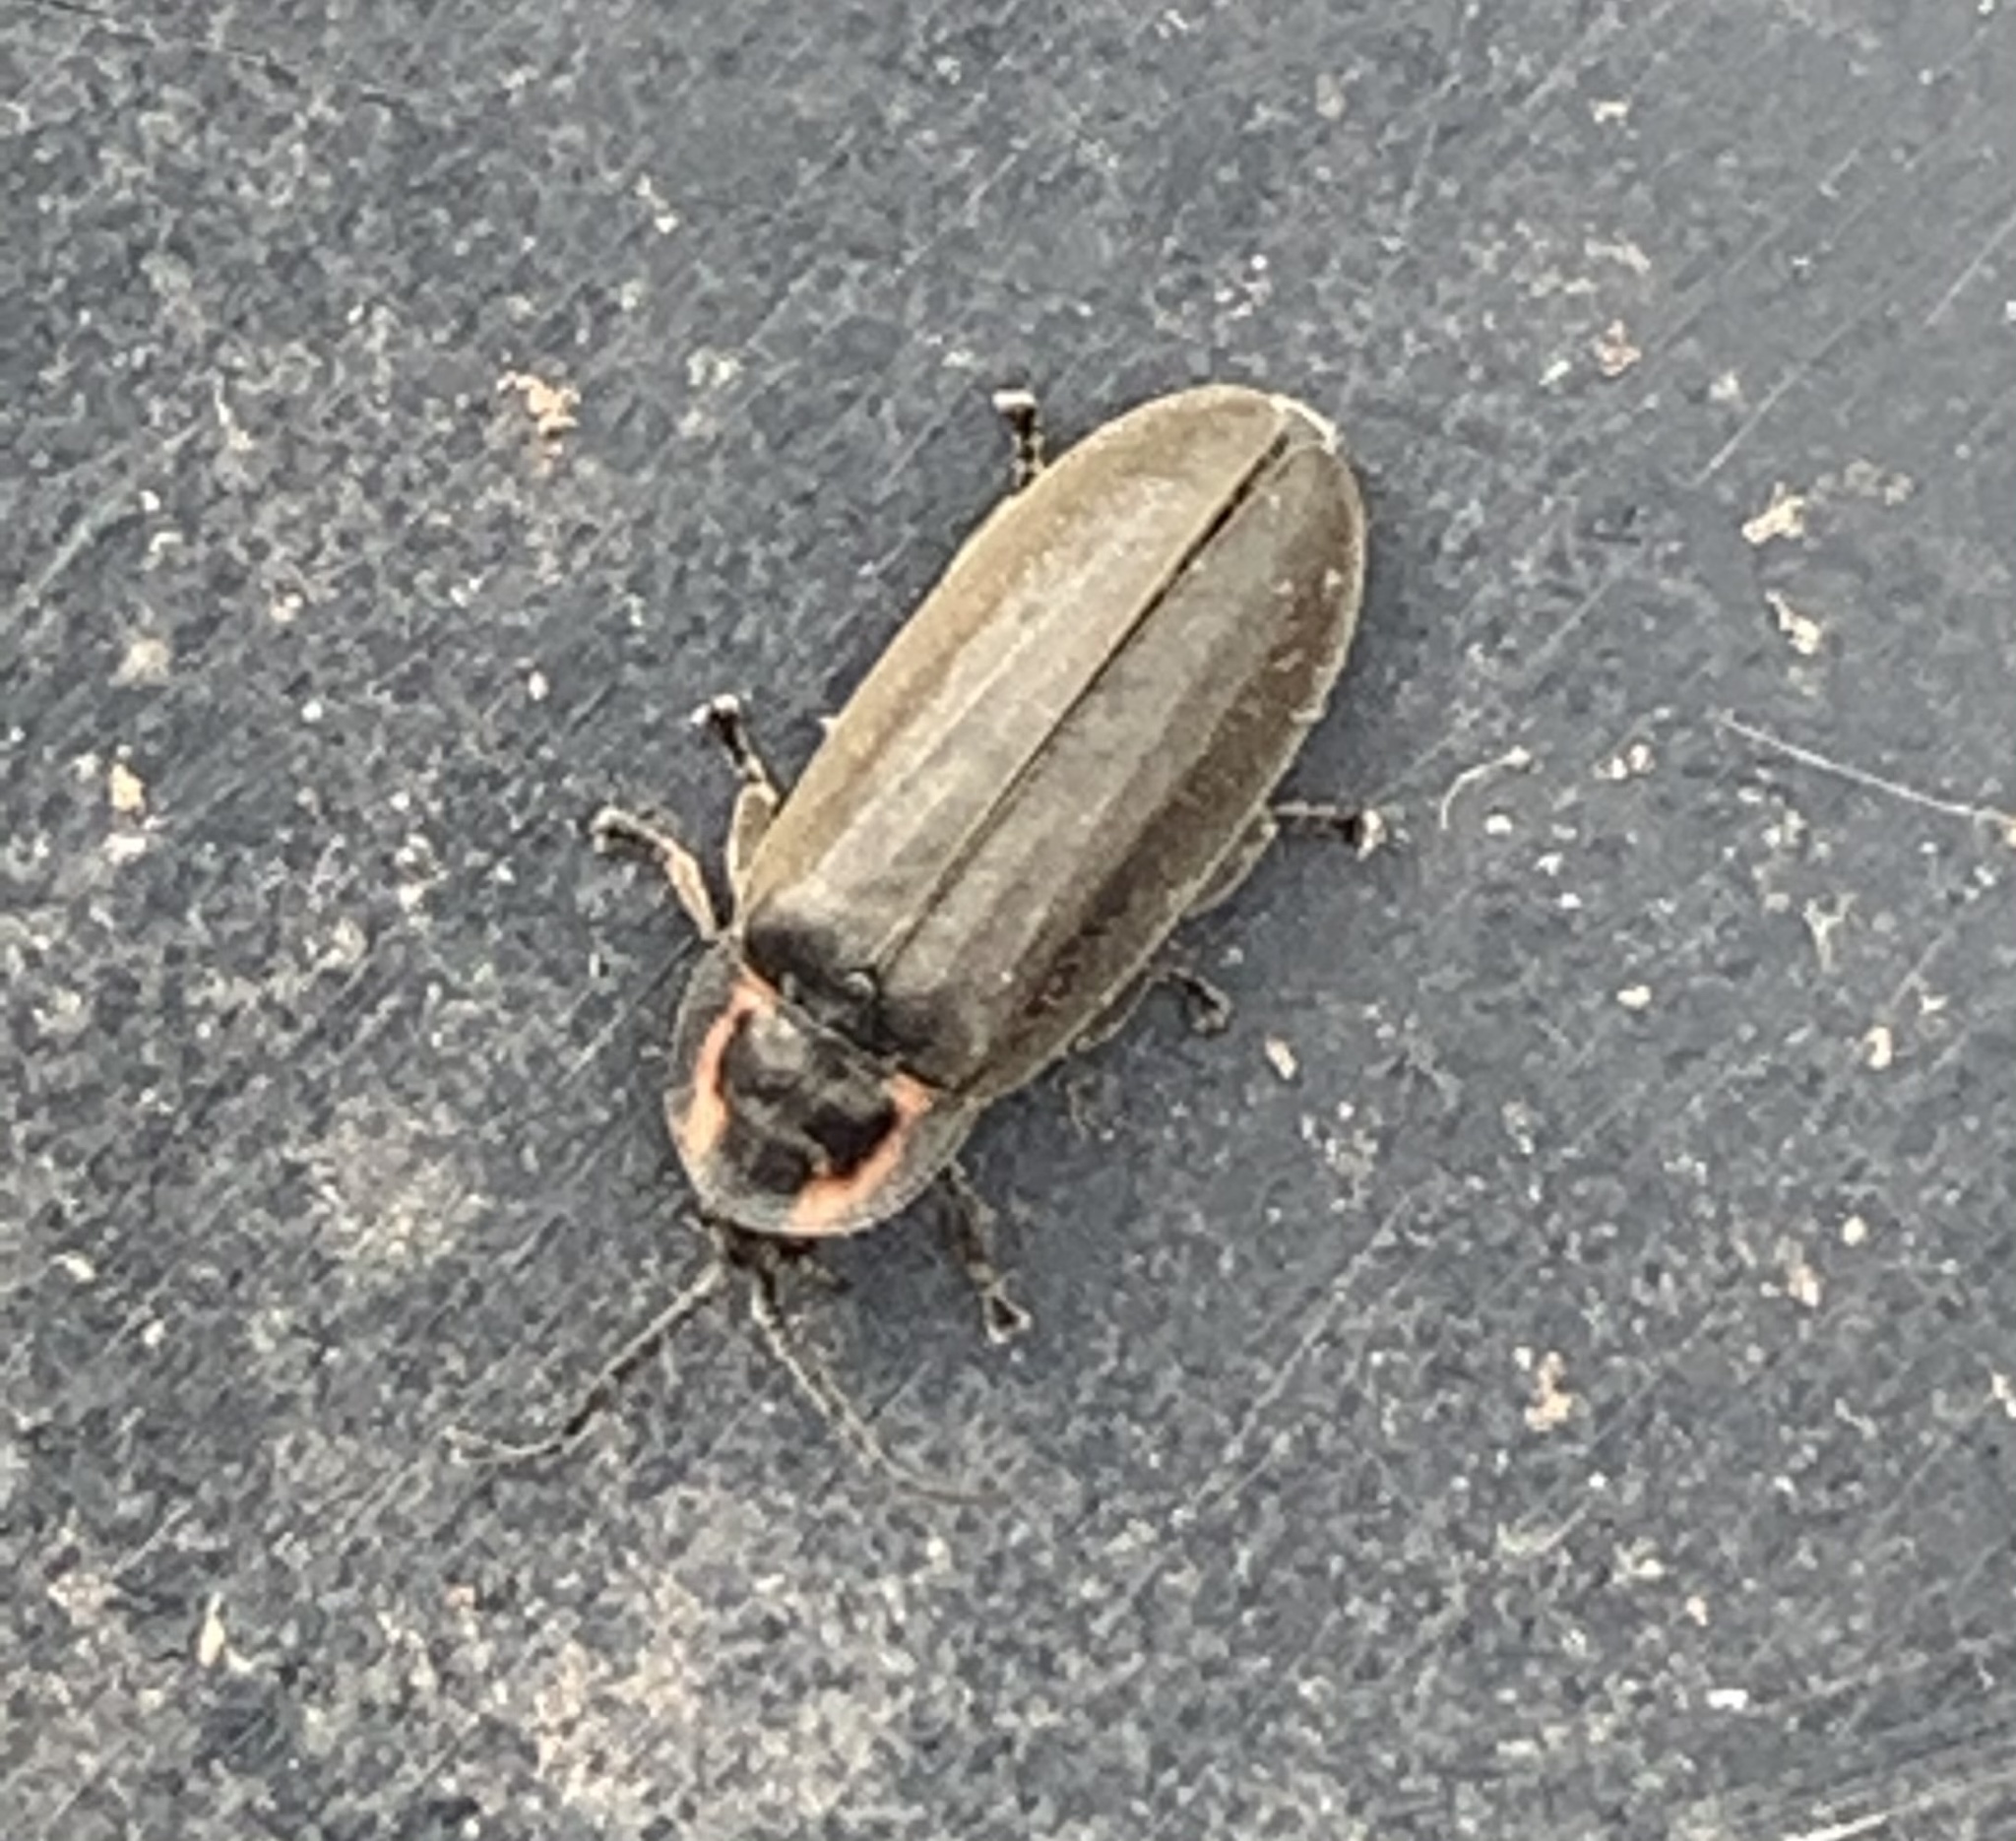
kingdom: Animalia
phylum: Arthropoda
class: Insecta
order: Coleoptera
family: Lampyridae
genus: Photinus
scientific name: Photinus corrusca
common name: Winter firefly
